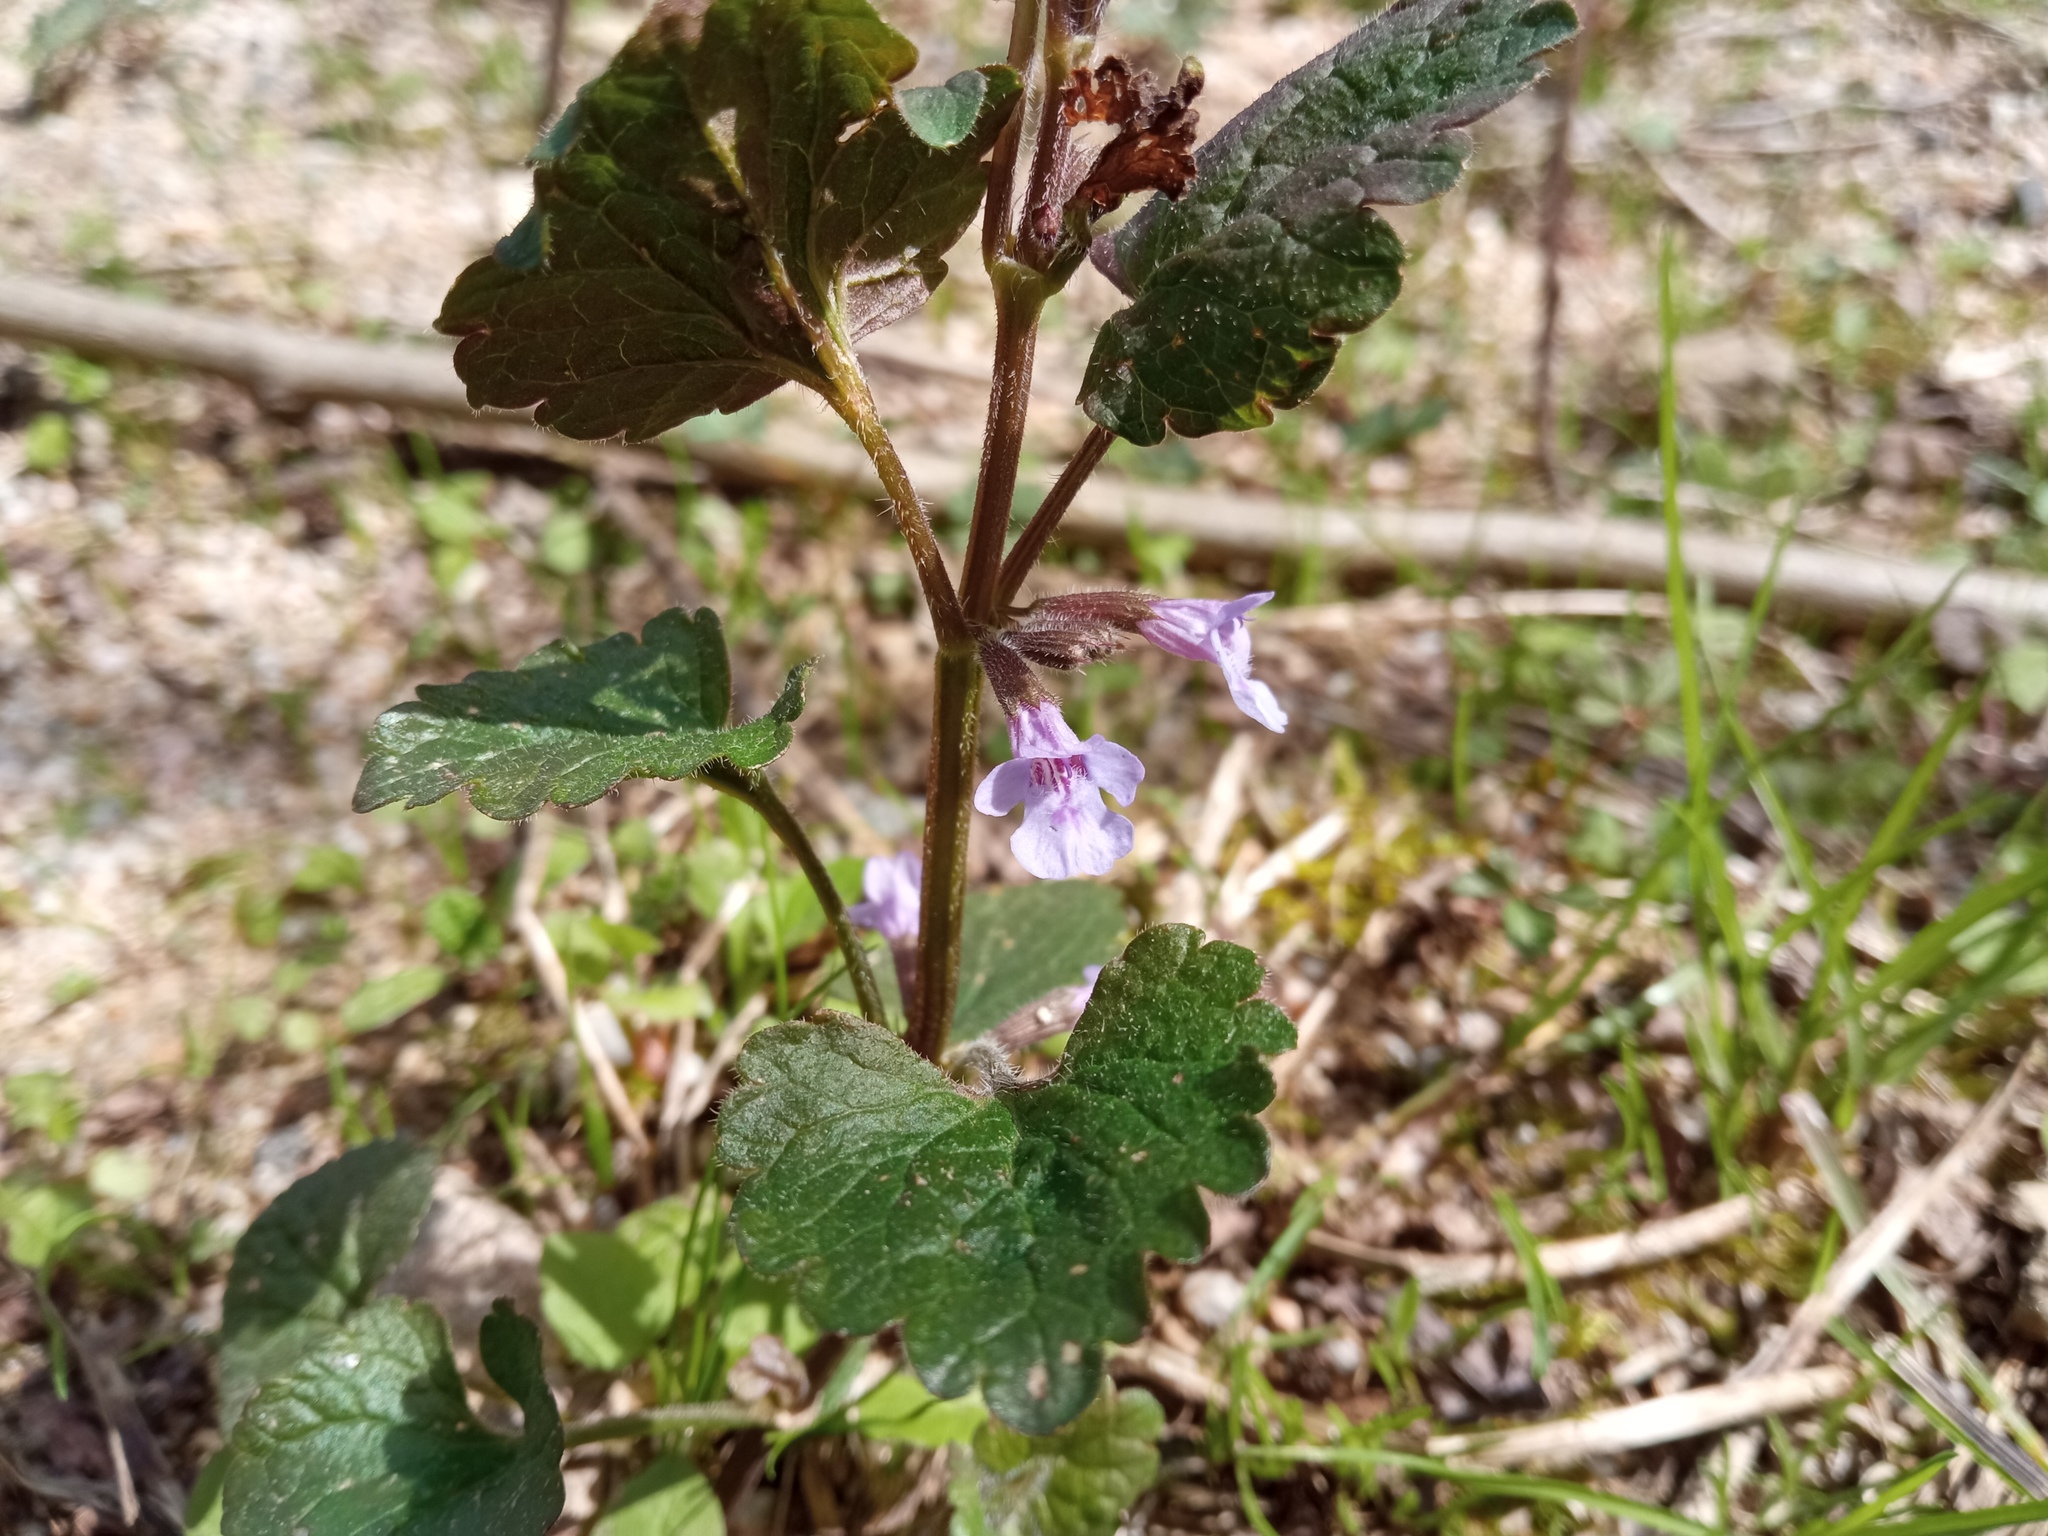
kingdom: Plantae
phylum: Tracheophyta
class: Magnoliopsida
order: Lamiales
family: Lamiaceae
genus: Glechoma
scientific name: Glechoma hederacea
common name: Ground ivy
